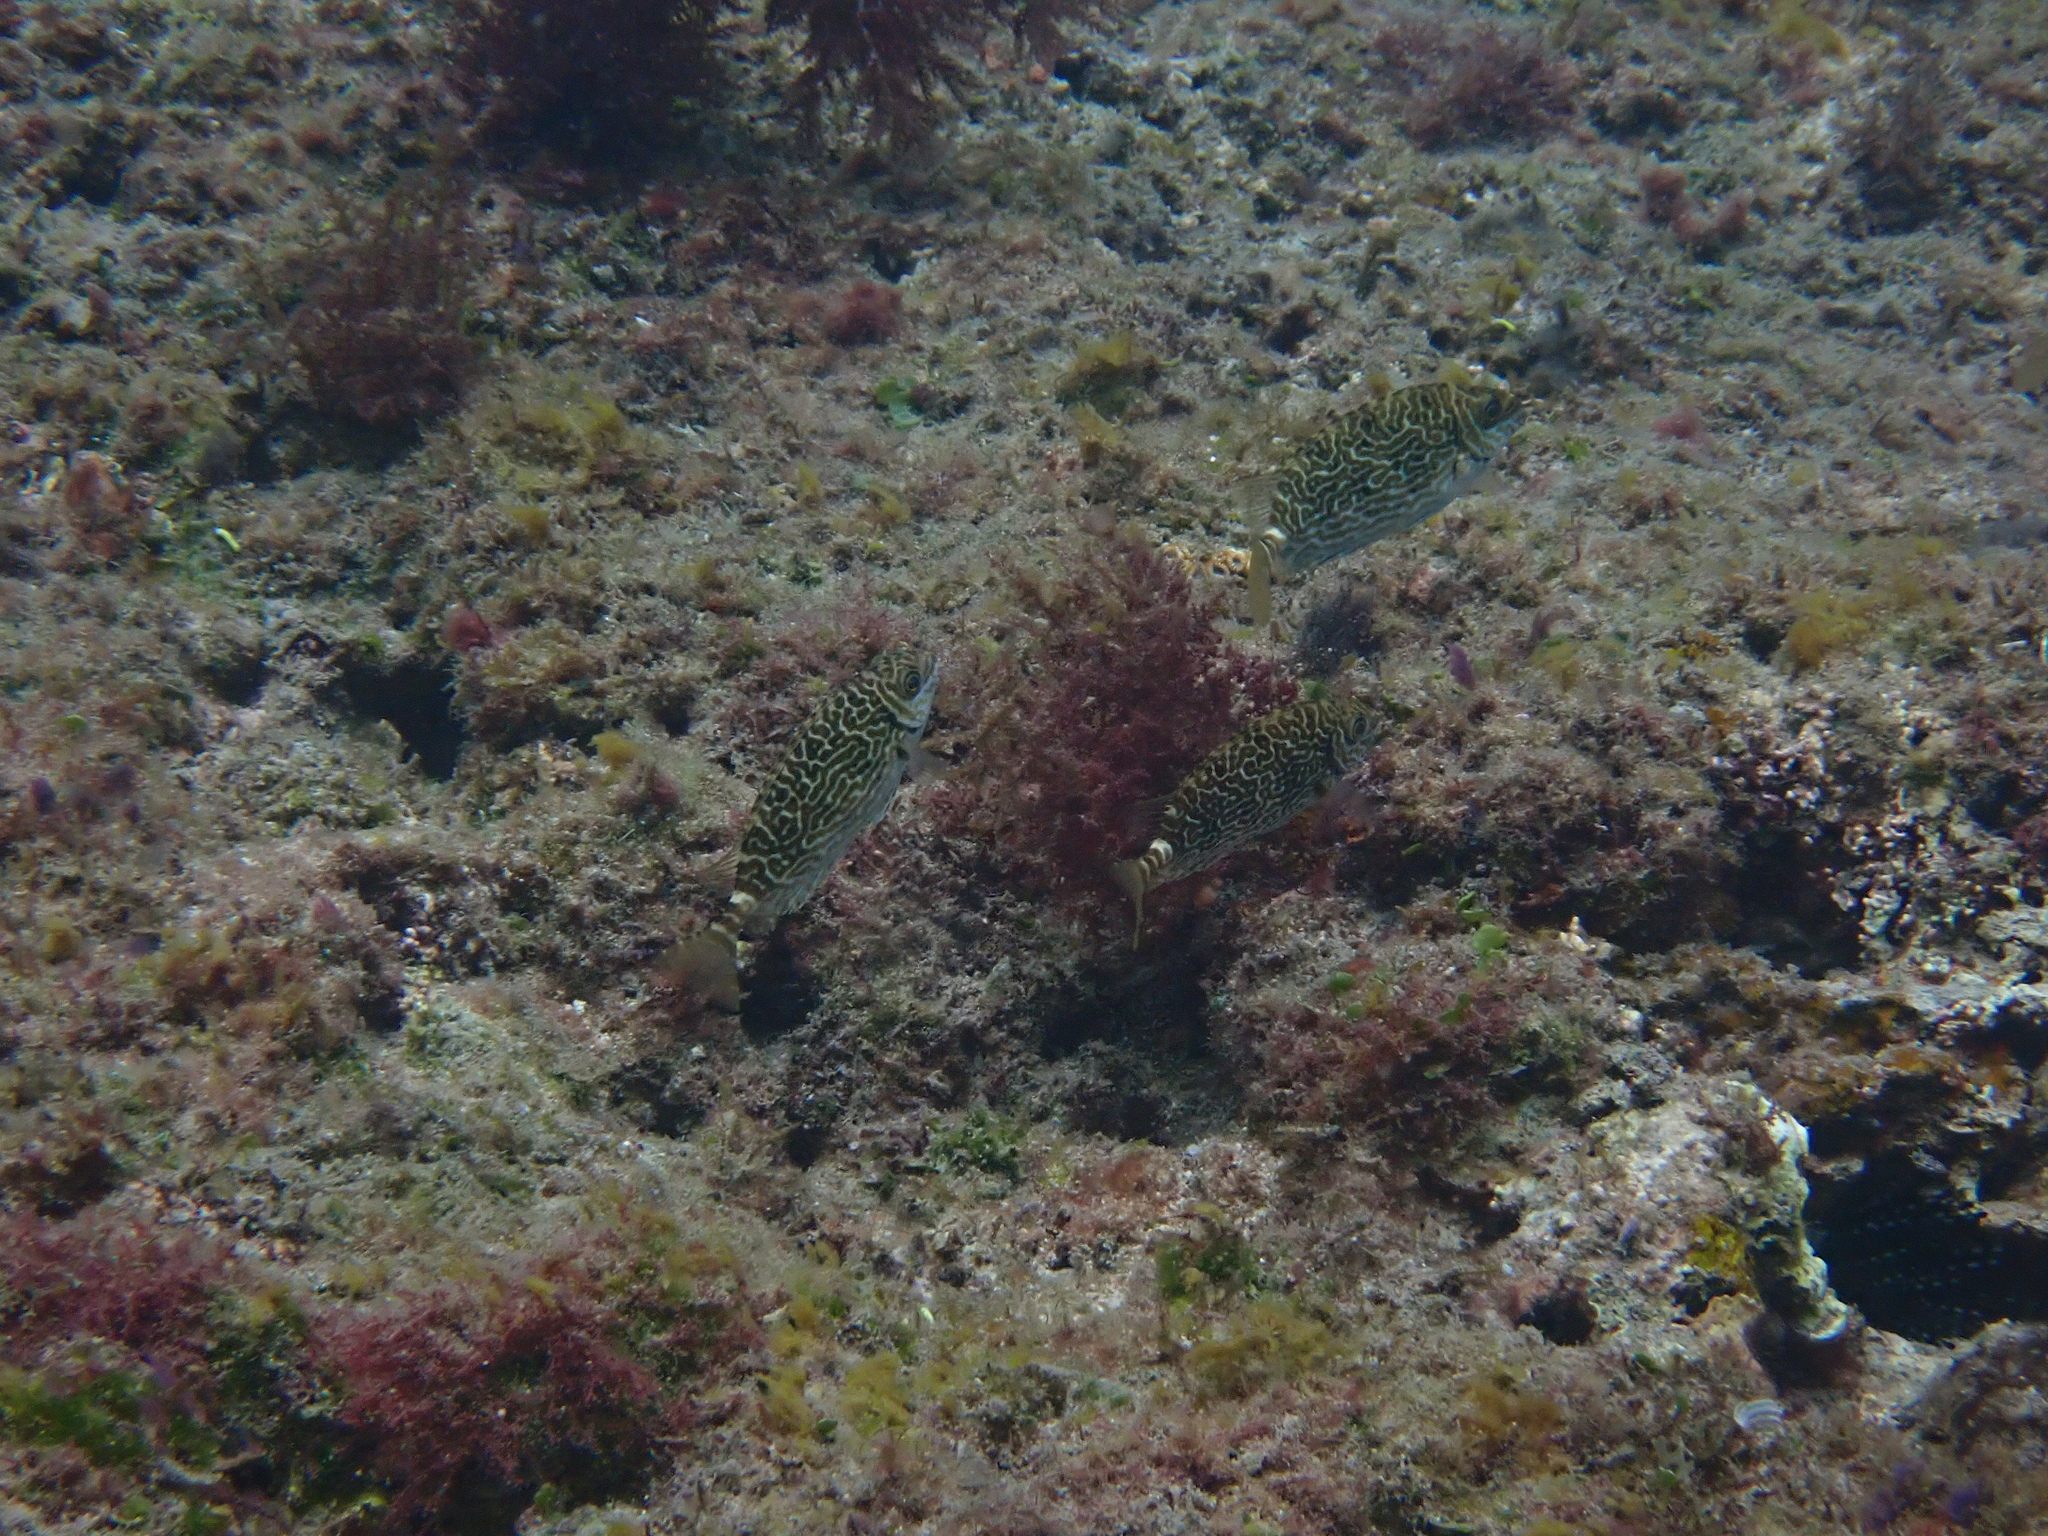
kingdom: Animalia
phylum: Chordata
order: Perciformes
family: Siganidae
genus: Siganus
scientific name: Siganus spinus
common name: Scribbled rabbitfish
